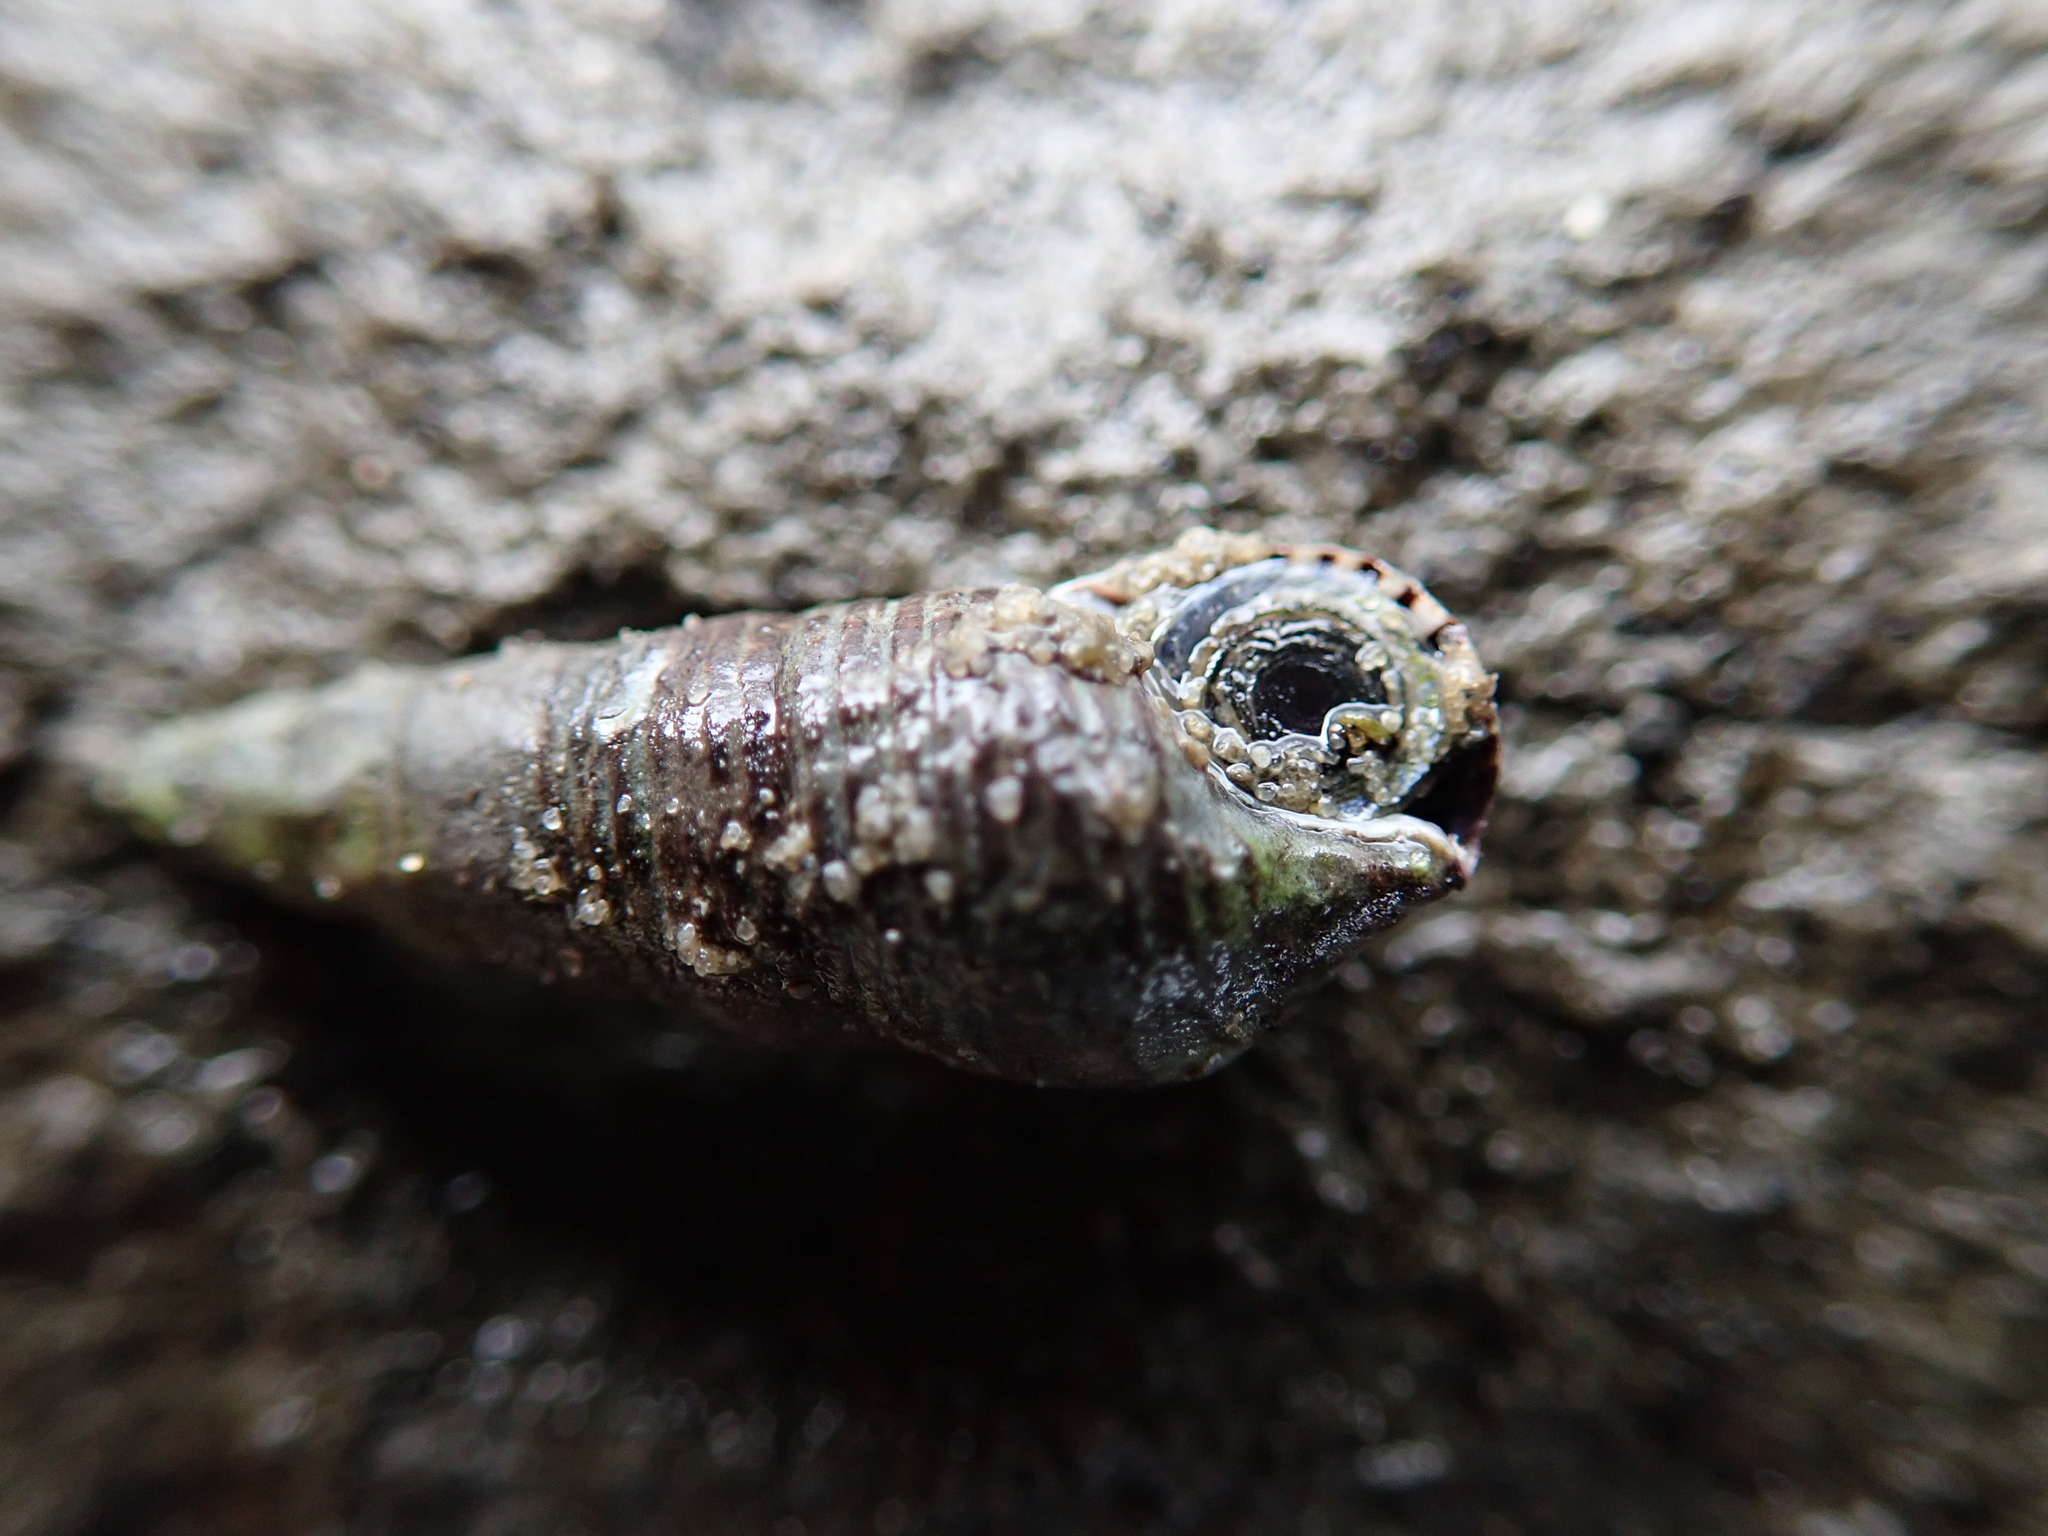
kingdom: Animalia
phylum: Mollusca
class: Gastropoda
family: Batillariidae
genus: Batillaria
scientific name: Batillaria attramentaria
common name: Japanese false cerith
